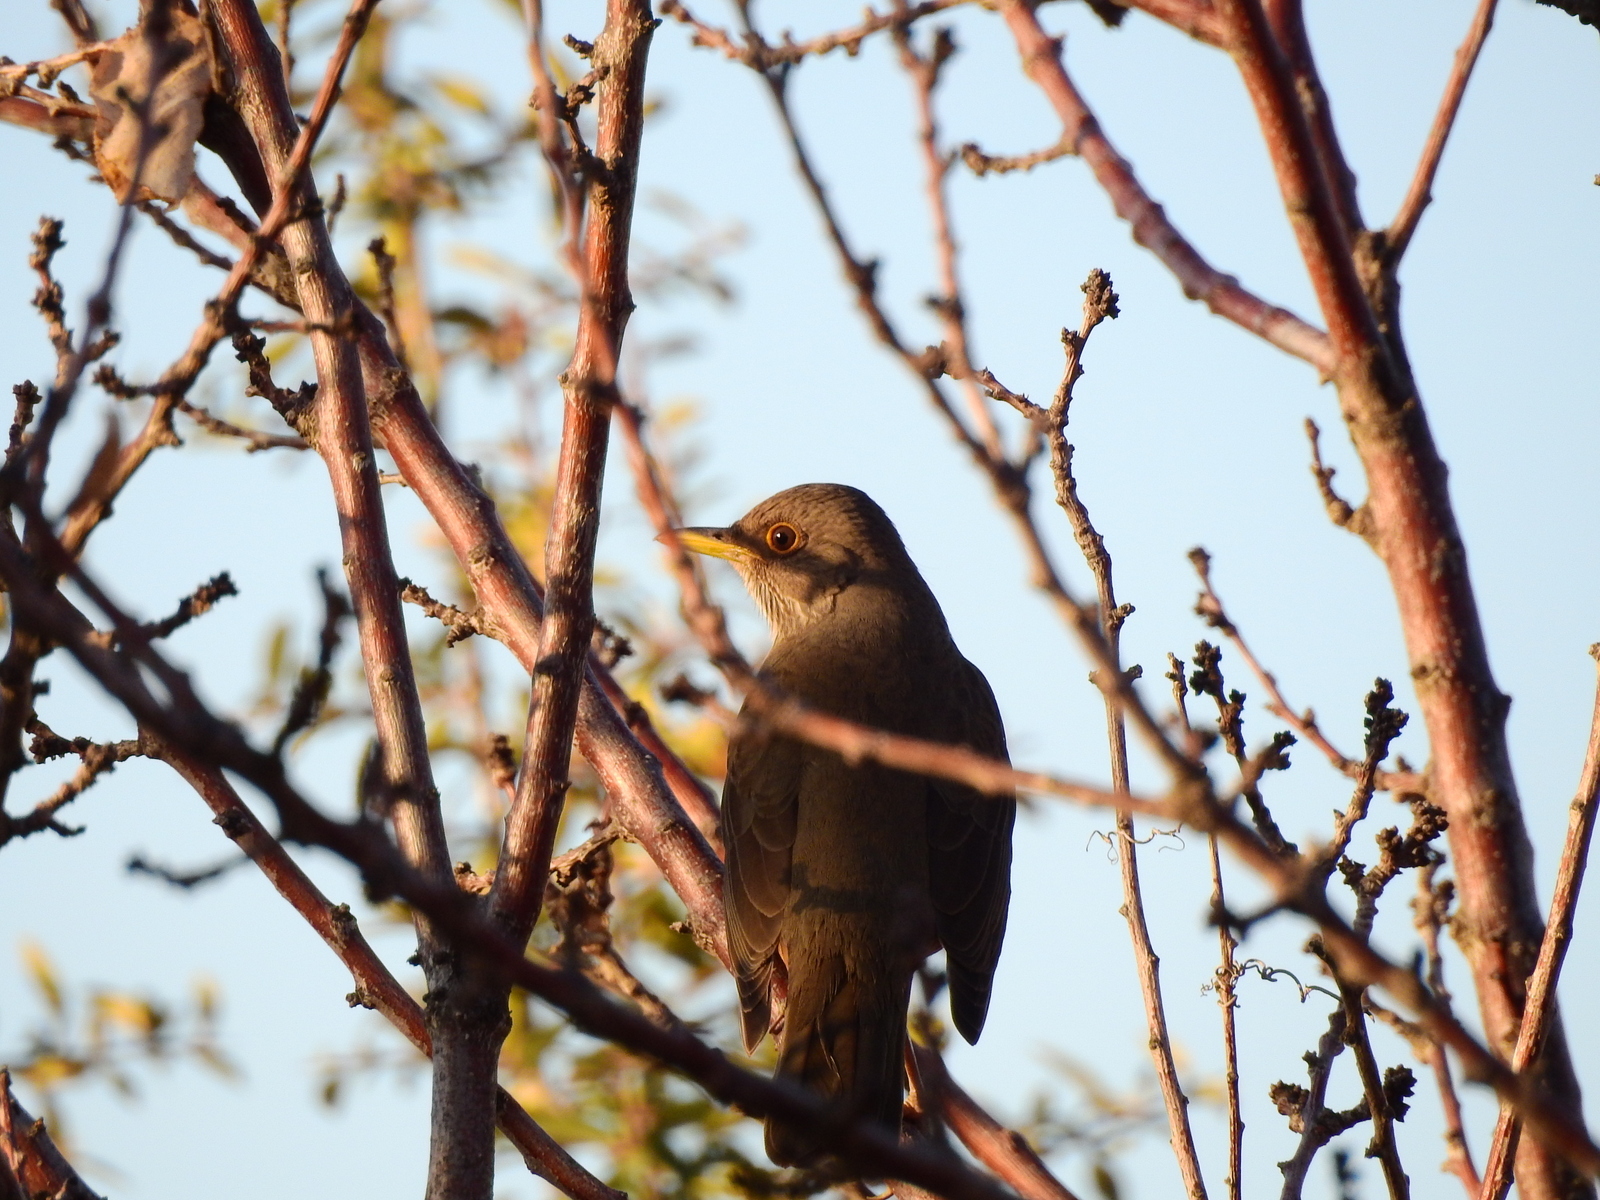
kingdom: Animalia
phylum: Chordata
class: Aves
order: Passeriformes
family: Turdidae
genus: Turdus
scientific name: Turdus rufiventris
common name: Rufous-bellied thrush
